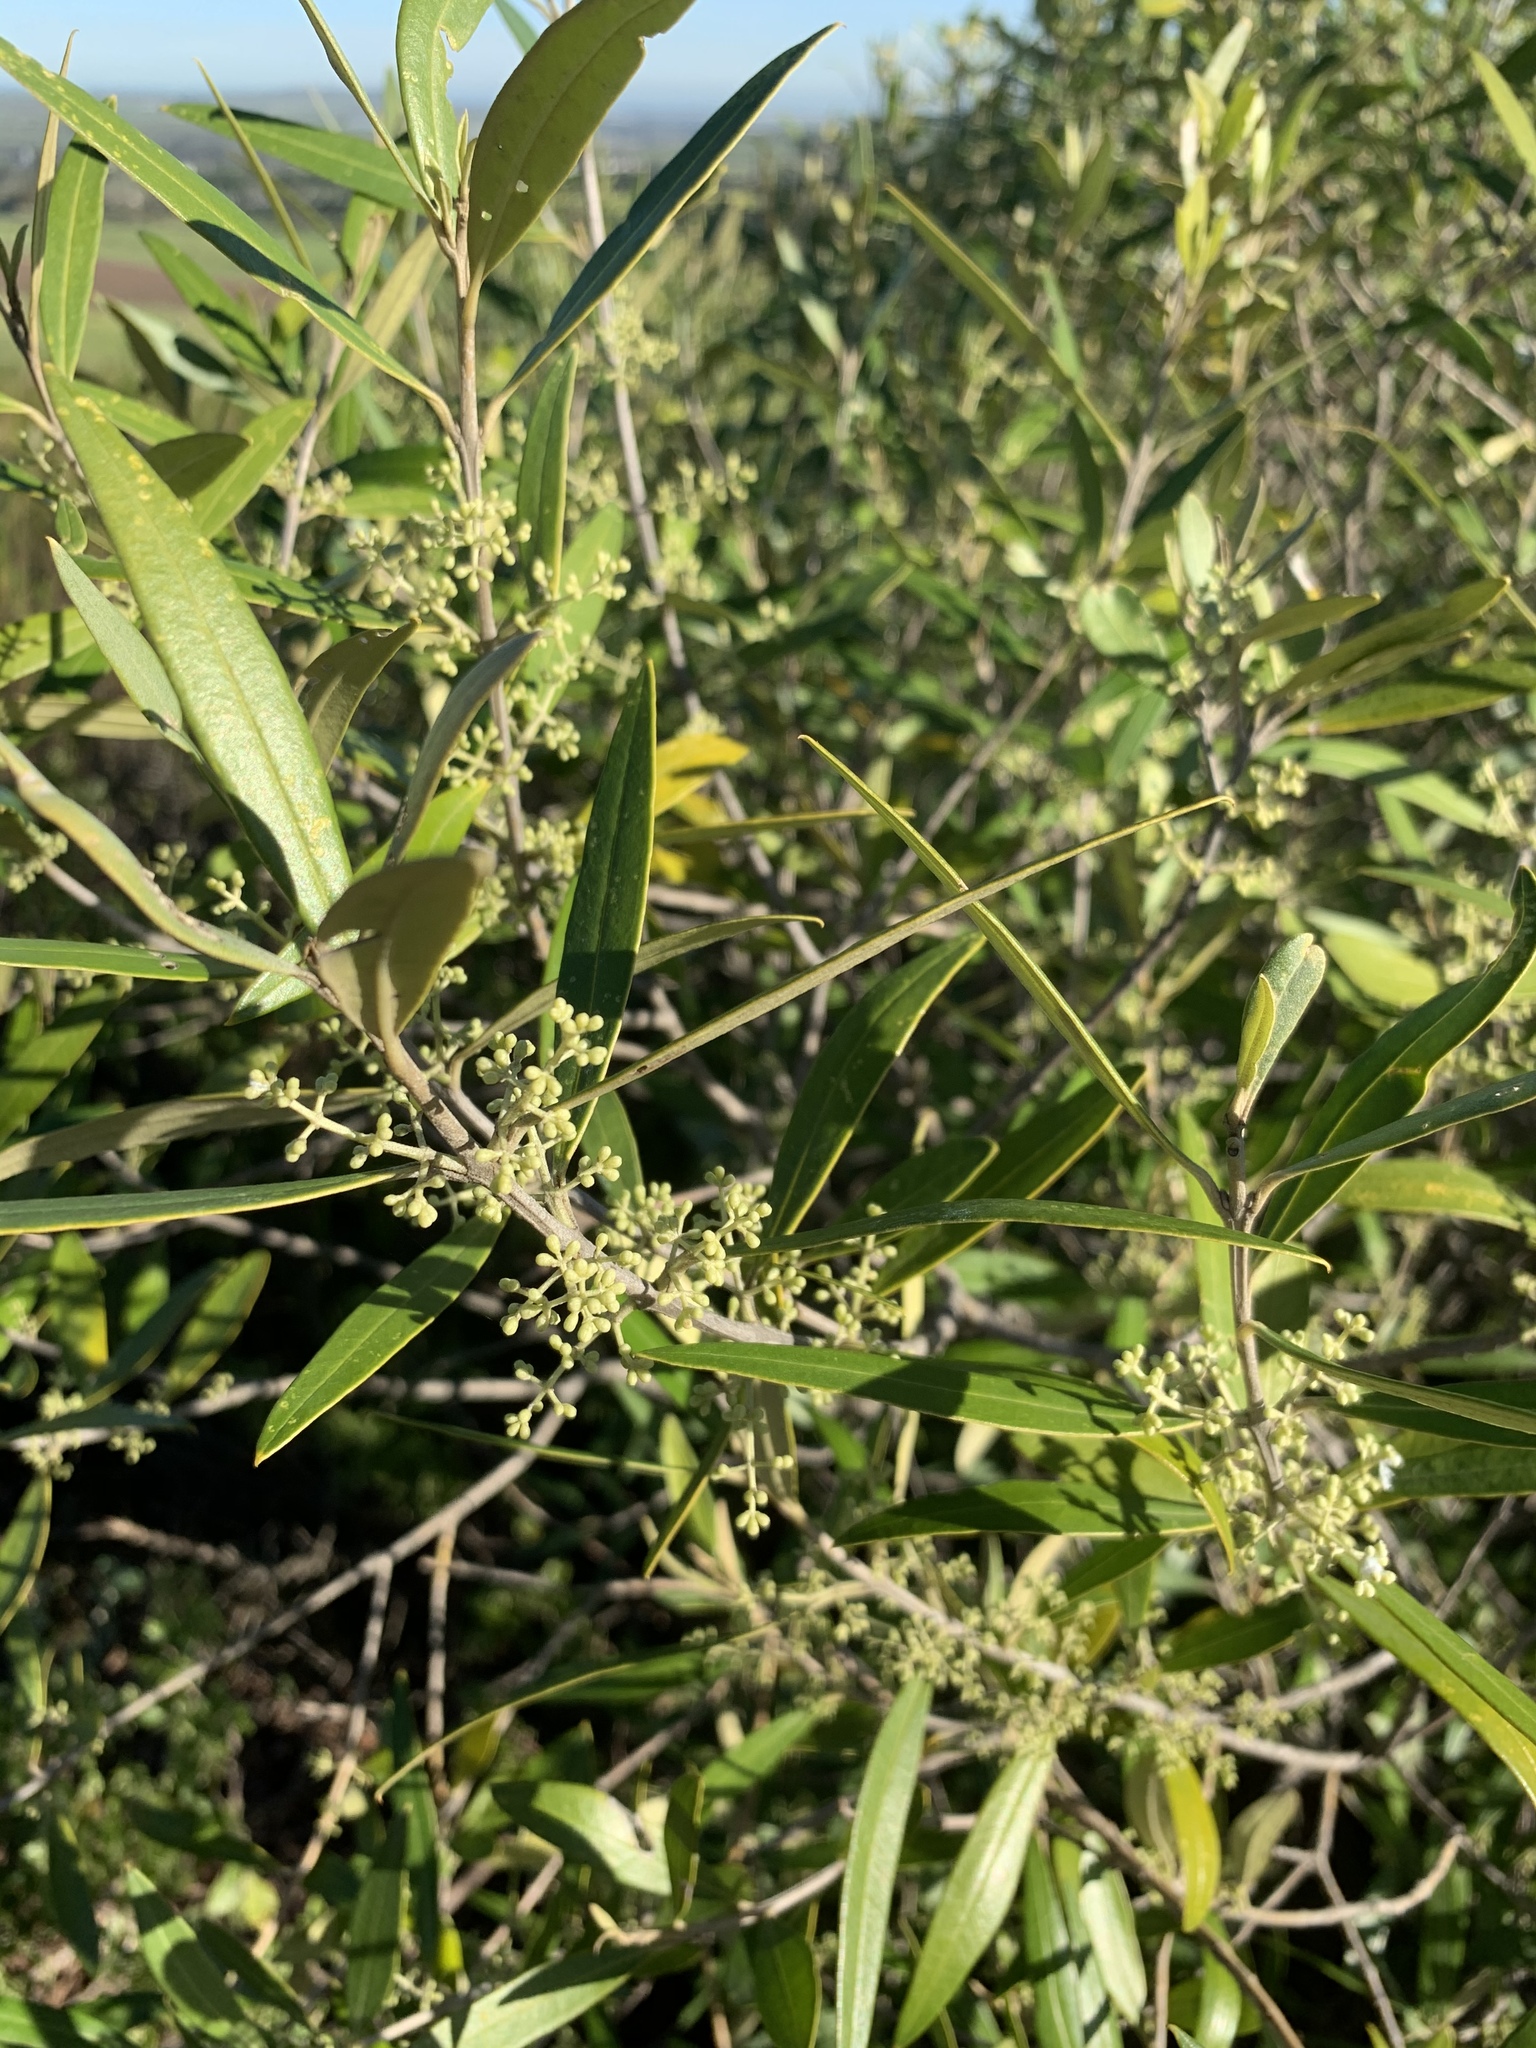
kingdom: Plantae
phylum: Tracheophyta
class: Magnoliopsida
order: Lamiales
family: Oleaceae
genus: Olea
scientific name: Olea europaea
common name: Olive
